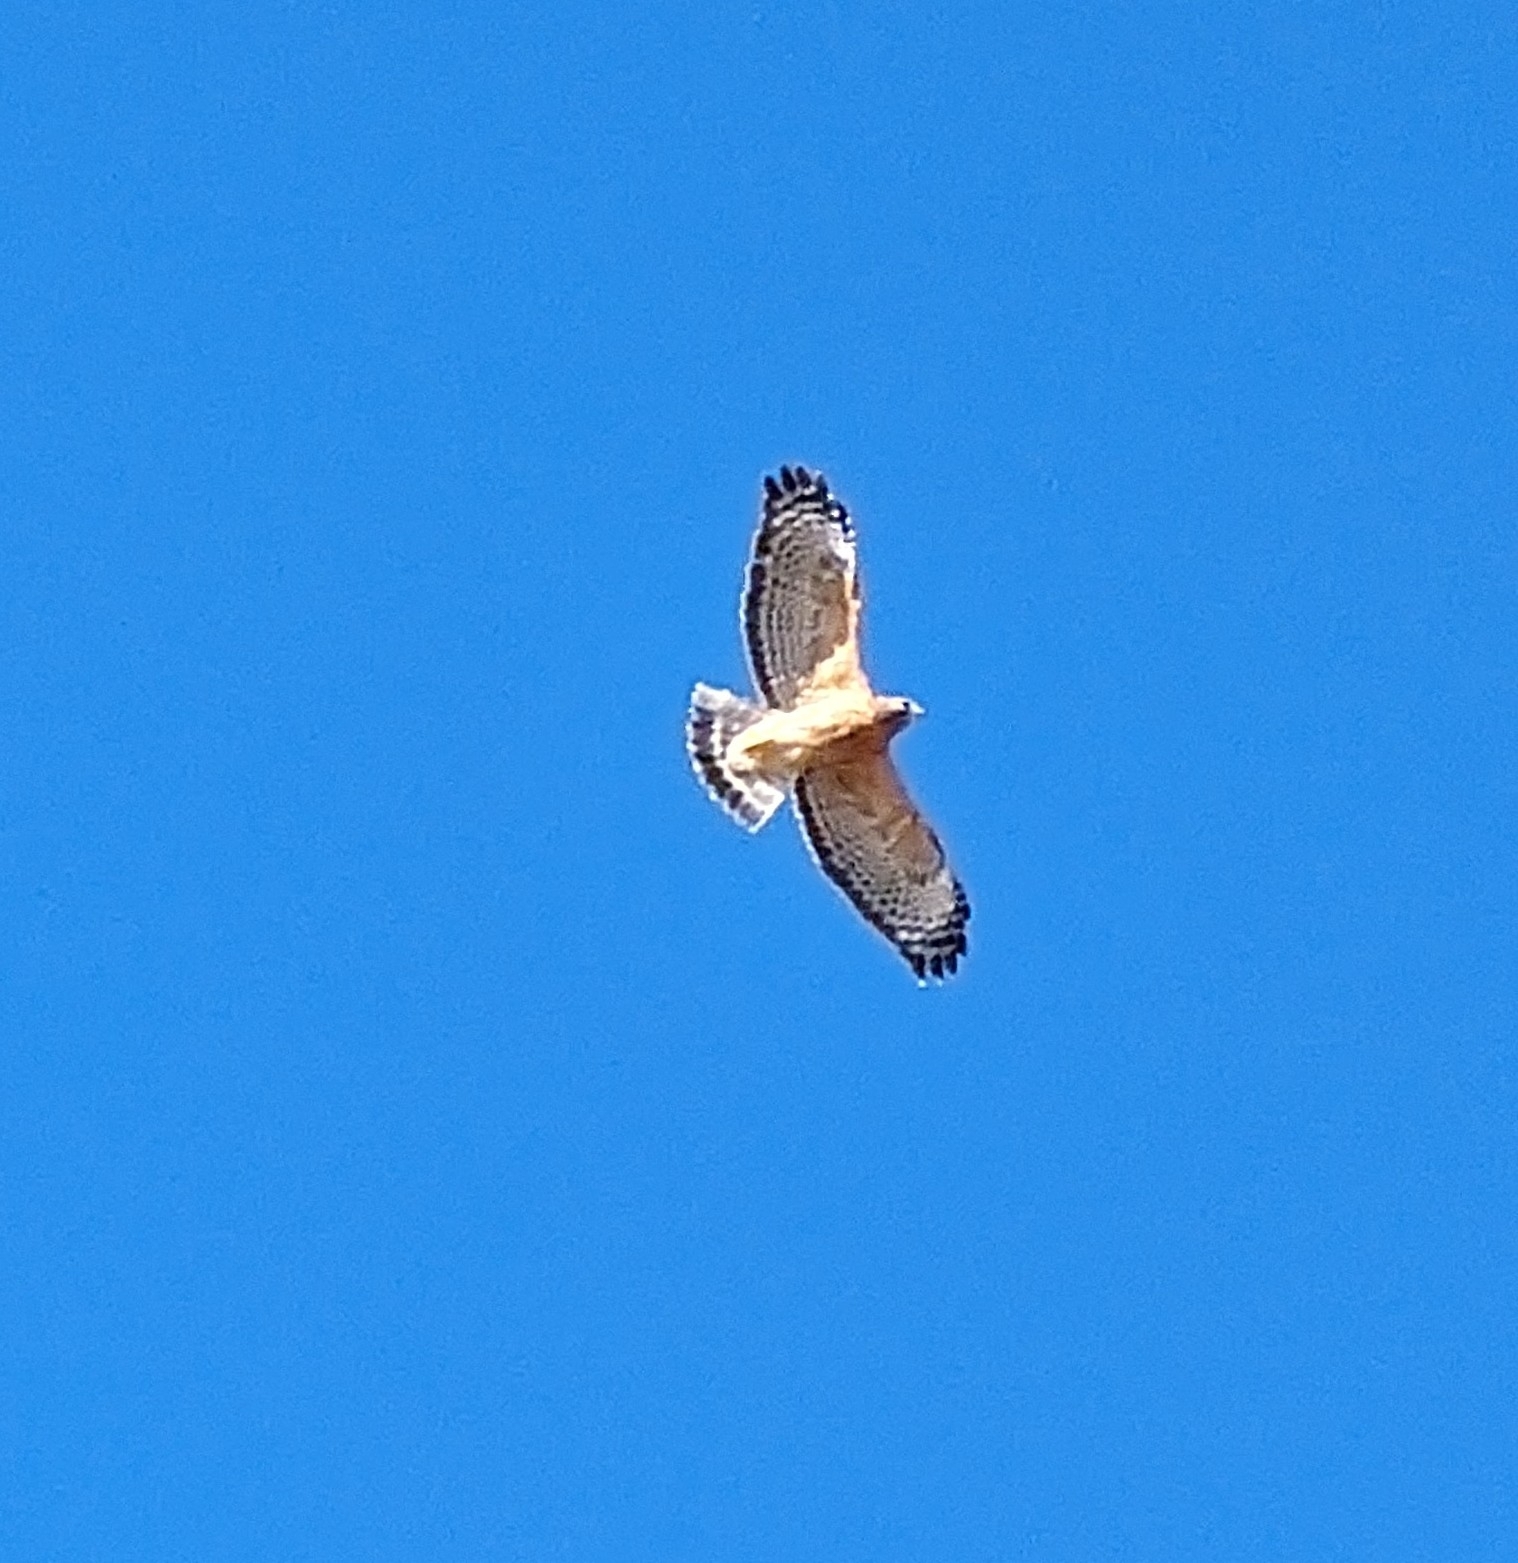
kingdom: Animalia
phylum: Chordata
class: Aves
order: Accipitriformes
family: Accipitridae
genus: Buteo
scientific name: Buteo lineatus
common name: Red-shouldered hawk
